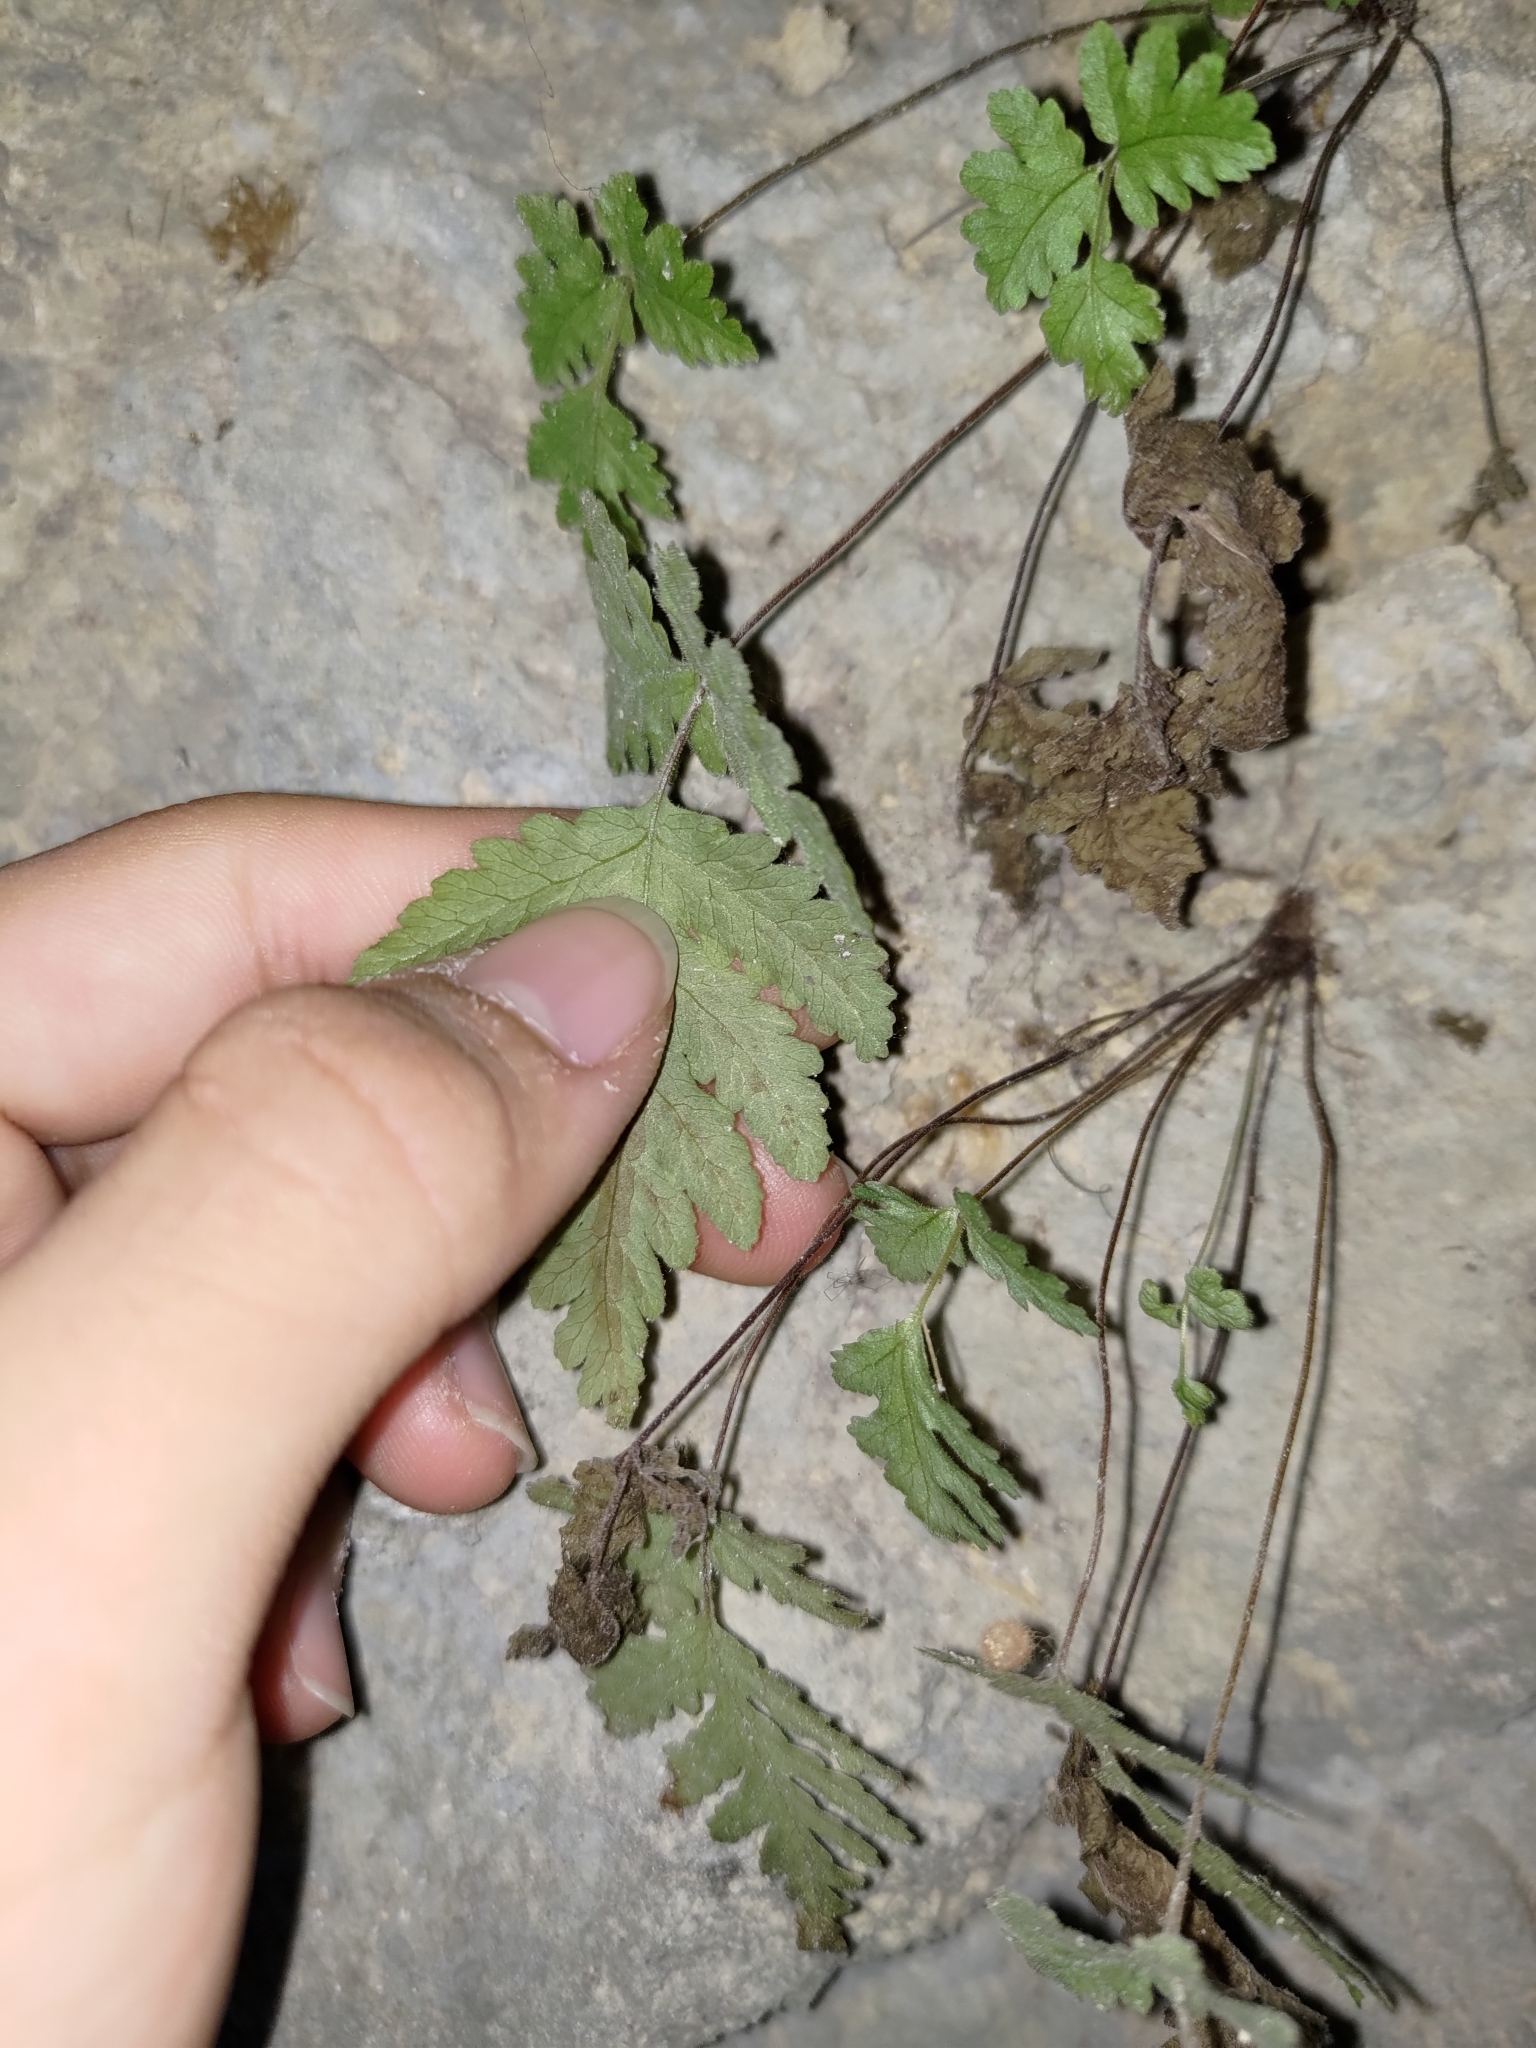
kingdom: Plantae
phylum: Tracheophyta
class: Polypodiopsida
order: Polypodiales
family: Tectariaceae
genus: Tectaria
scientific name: Tectaria membranacea
